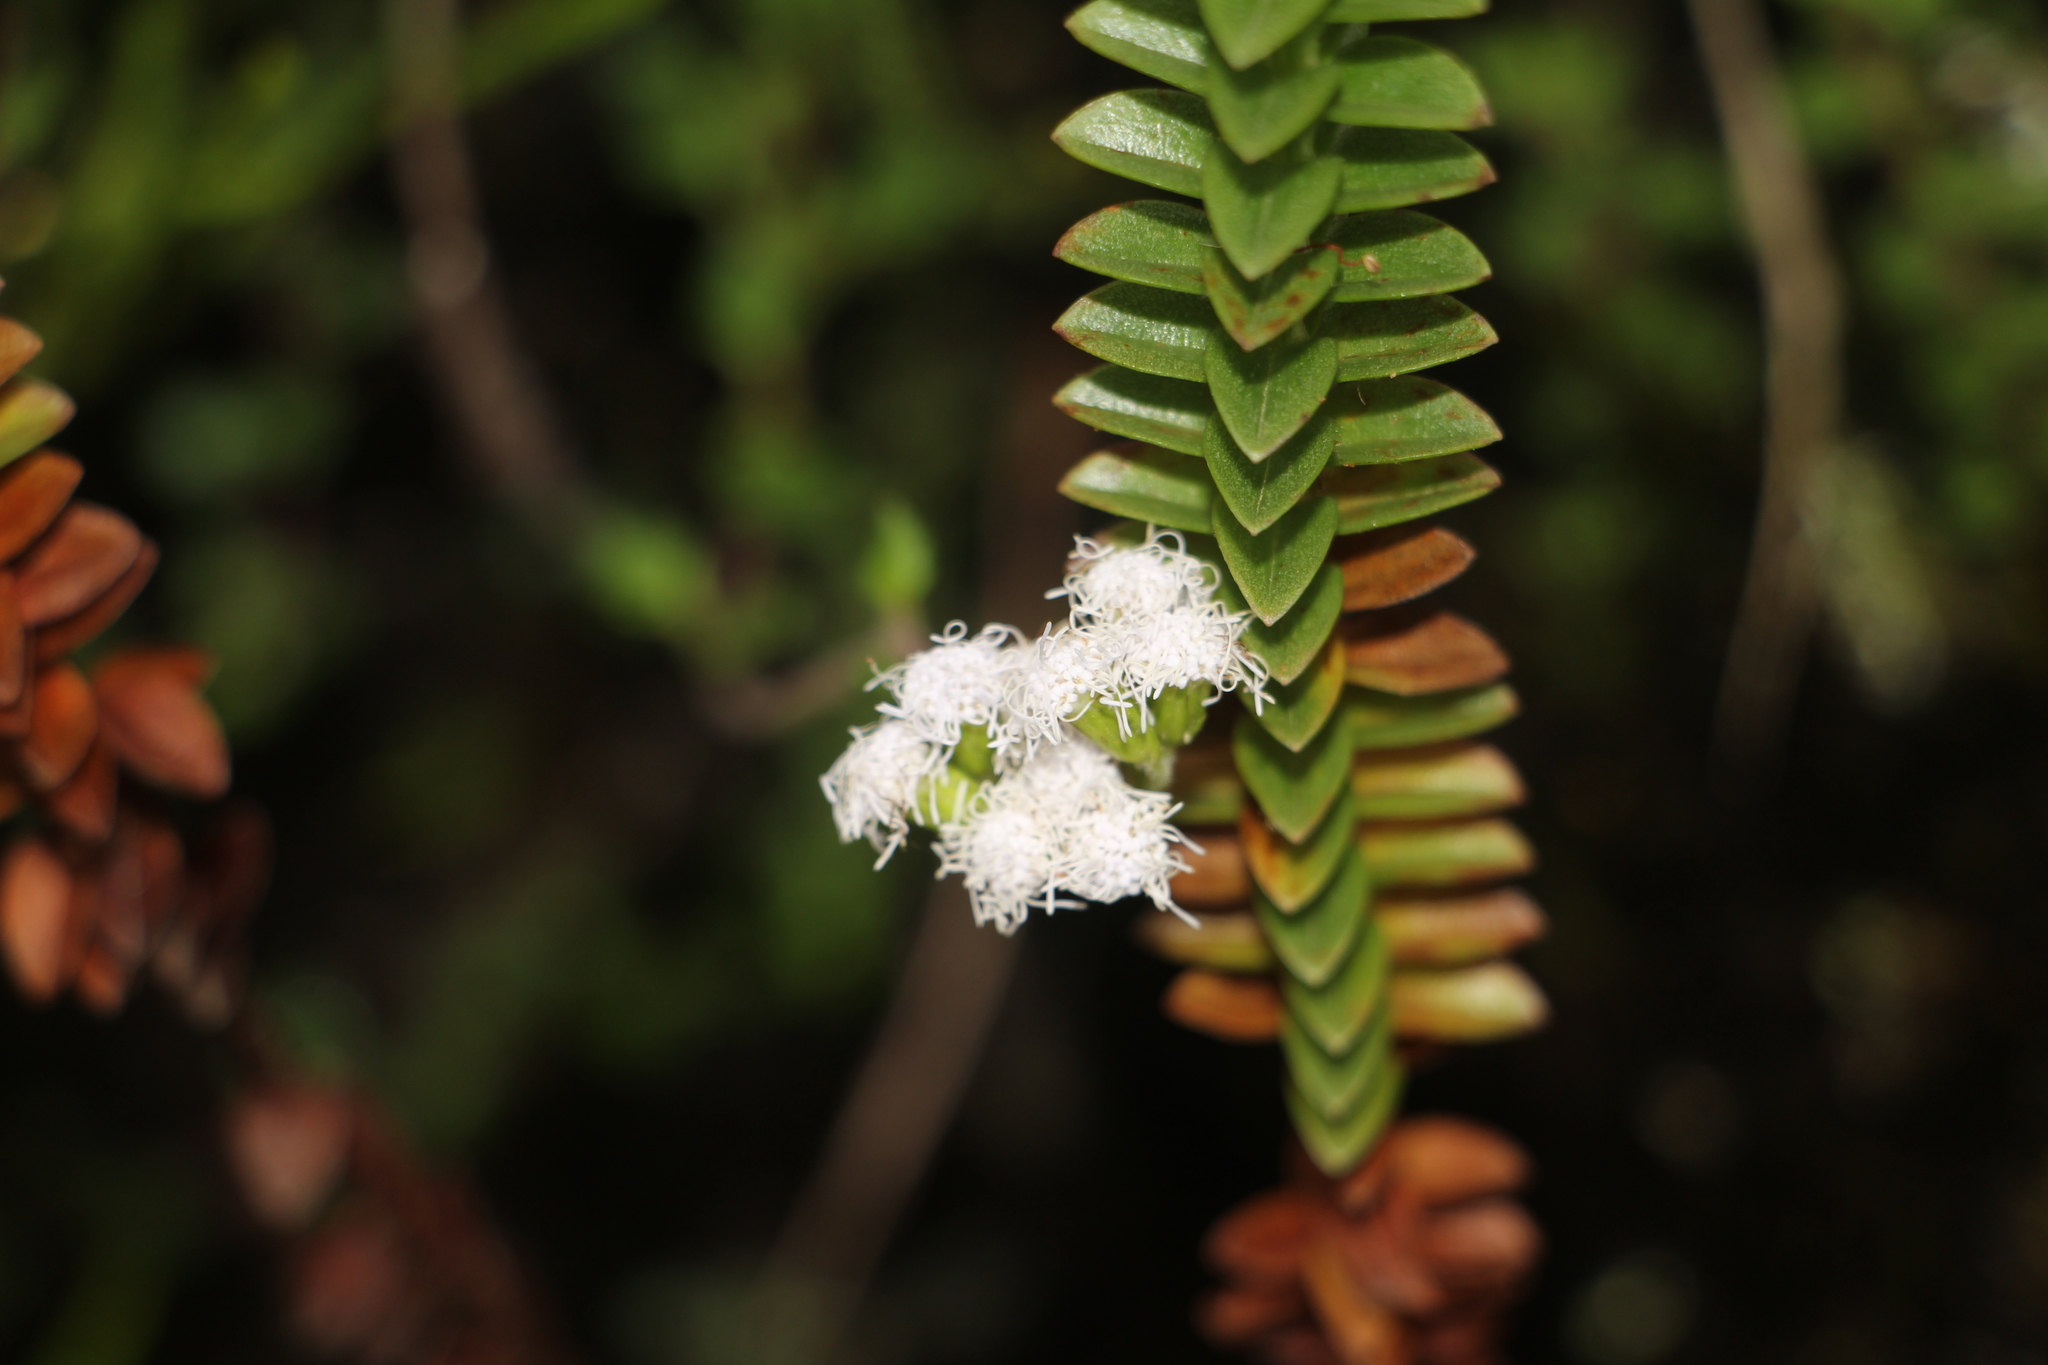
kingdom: Plantae
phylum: Tracheophyta
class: Magnoliopsida
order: Asterales
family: Asteraceae
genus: Lourteigia
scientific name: Lourteigia microphylla
